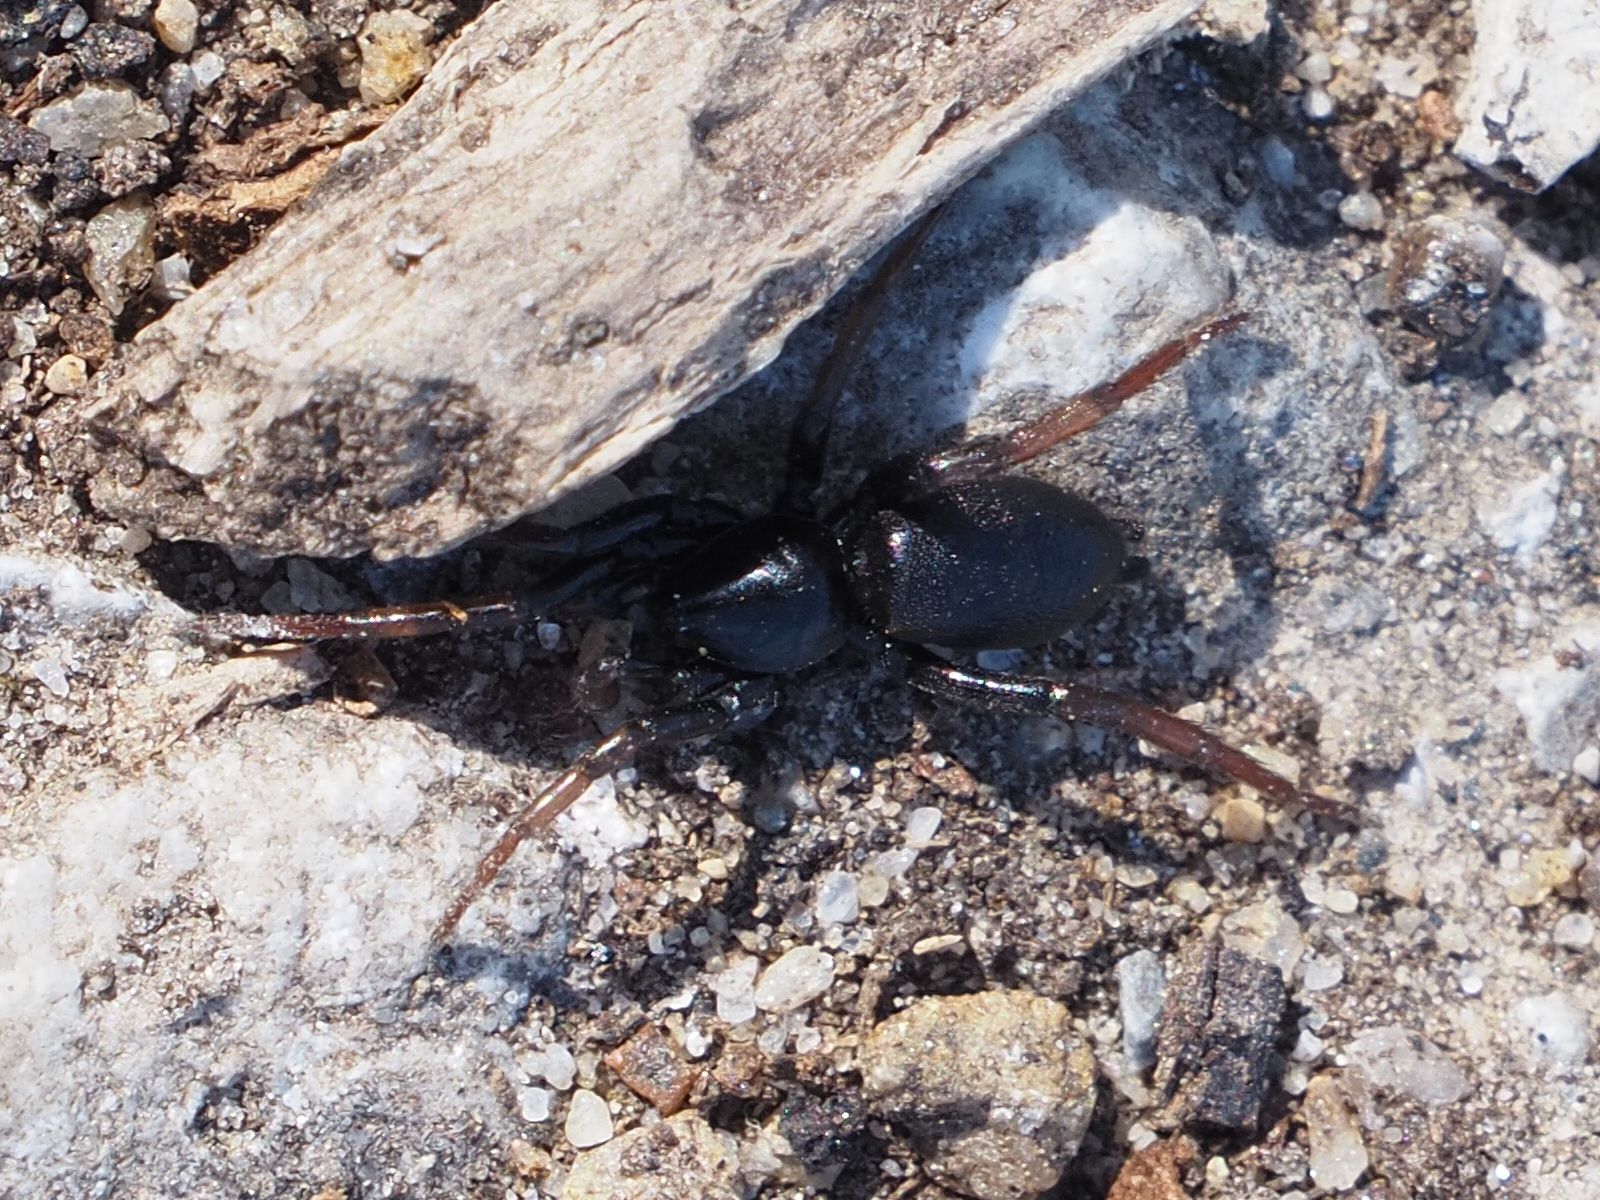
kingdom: Animalia
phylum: Arthropoda
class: Arachnida
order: Araneae
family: Gnaphosidae
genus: Trachyzelotes
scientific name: Trachyzelotes pedestris
